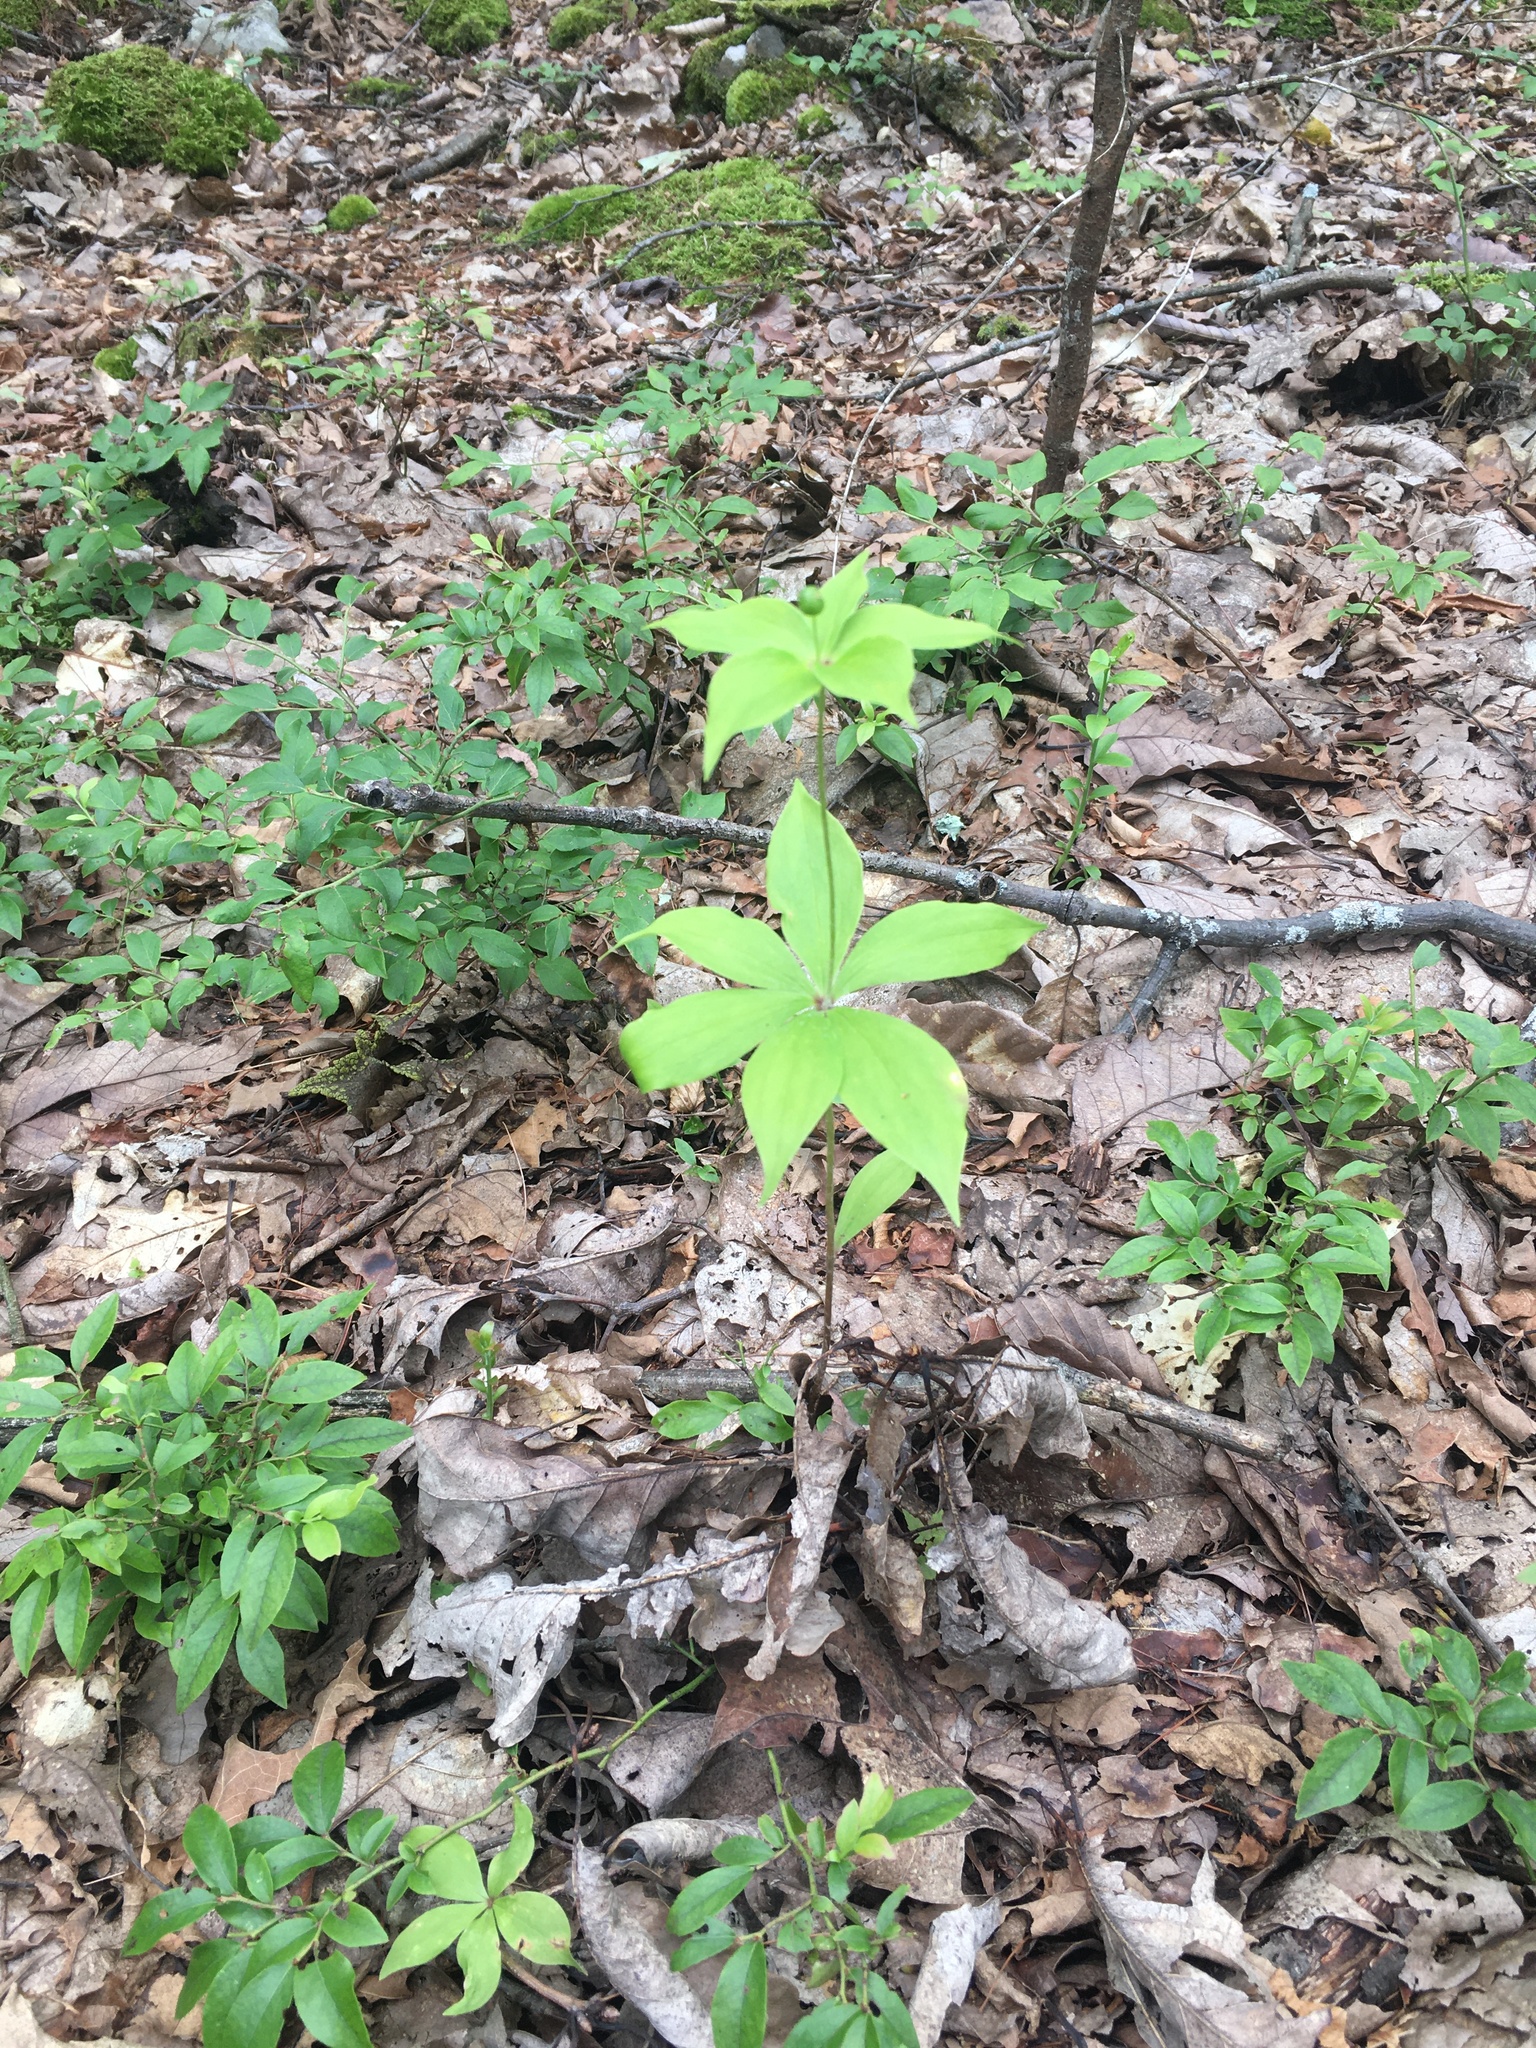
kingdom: Plantae
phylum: Tracheophyta
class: Liliopsida
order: Liliales
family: Liliaceae
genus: Medeola
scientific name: Medeola virginiana
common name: Indian cucumber-root
